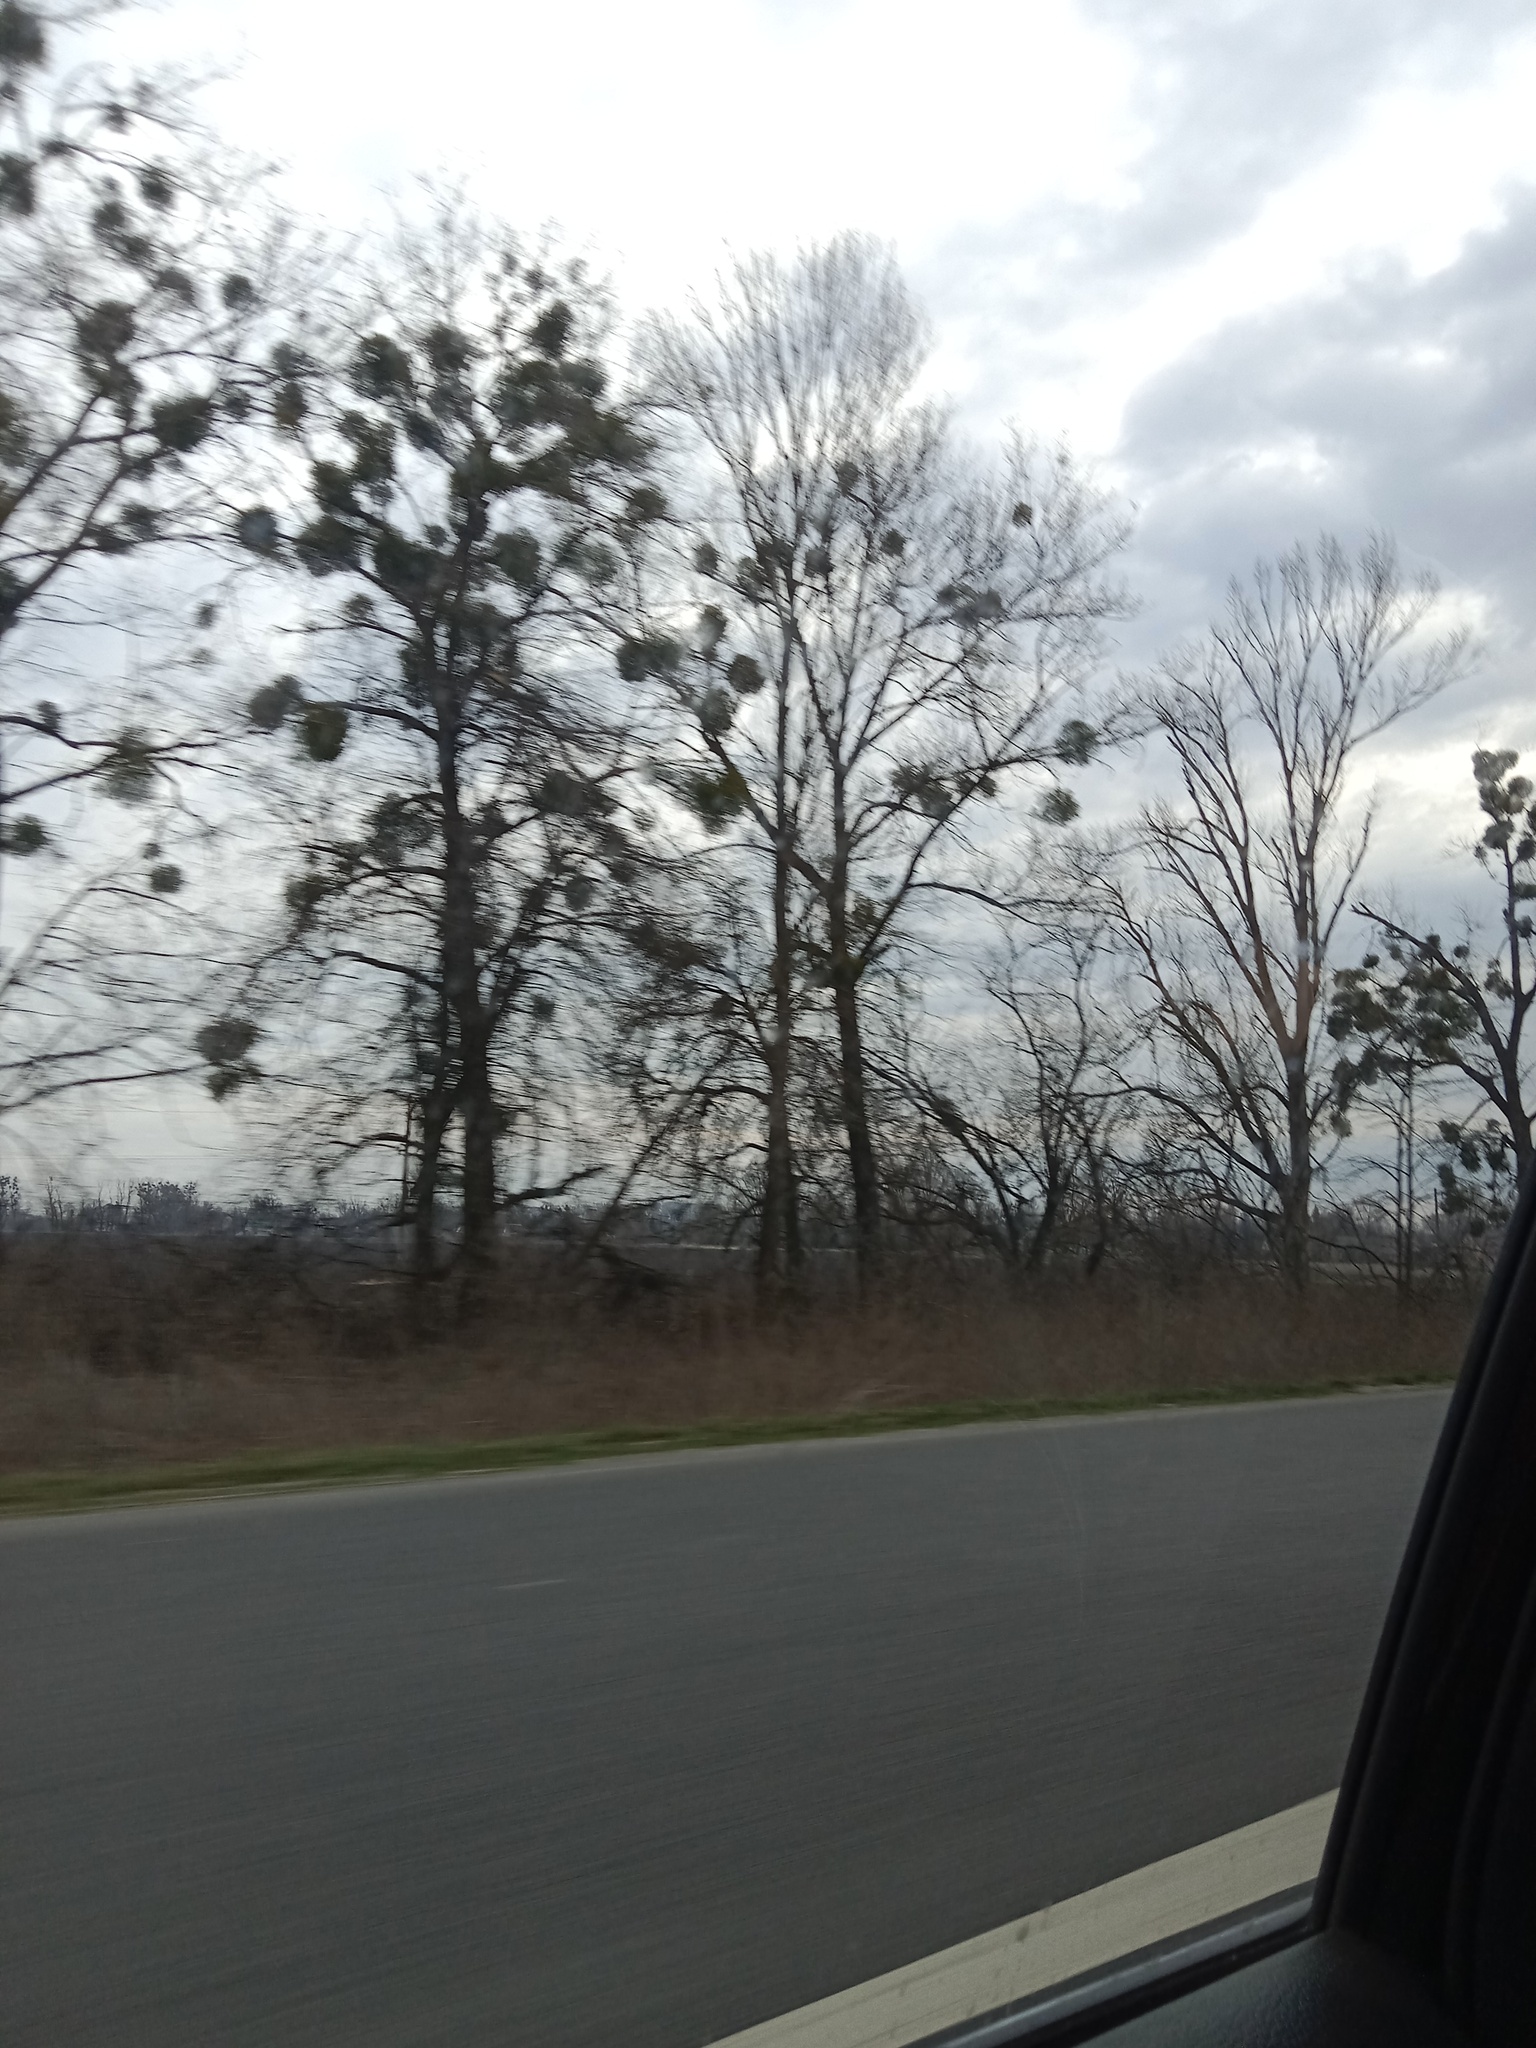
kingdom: Plantae
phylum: Tracheophyta
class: Magnoliopsida
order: Santalales
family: Viscaceae
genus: Viscum
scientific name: Viscum album
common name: Mistletoe
